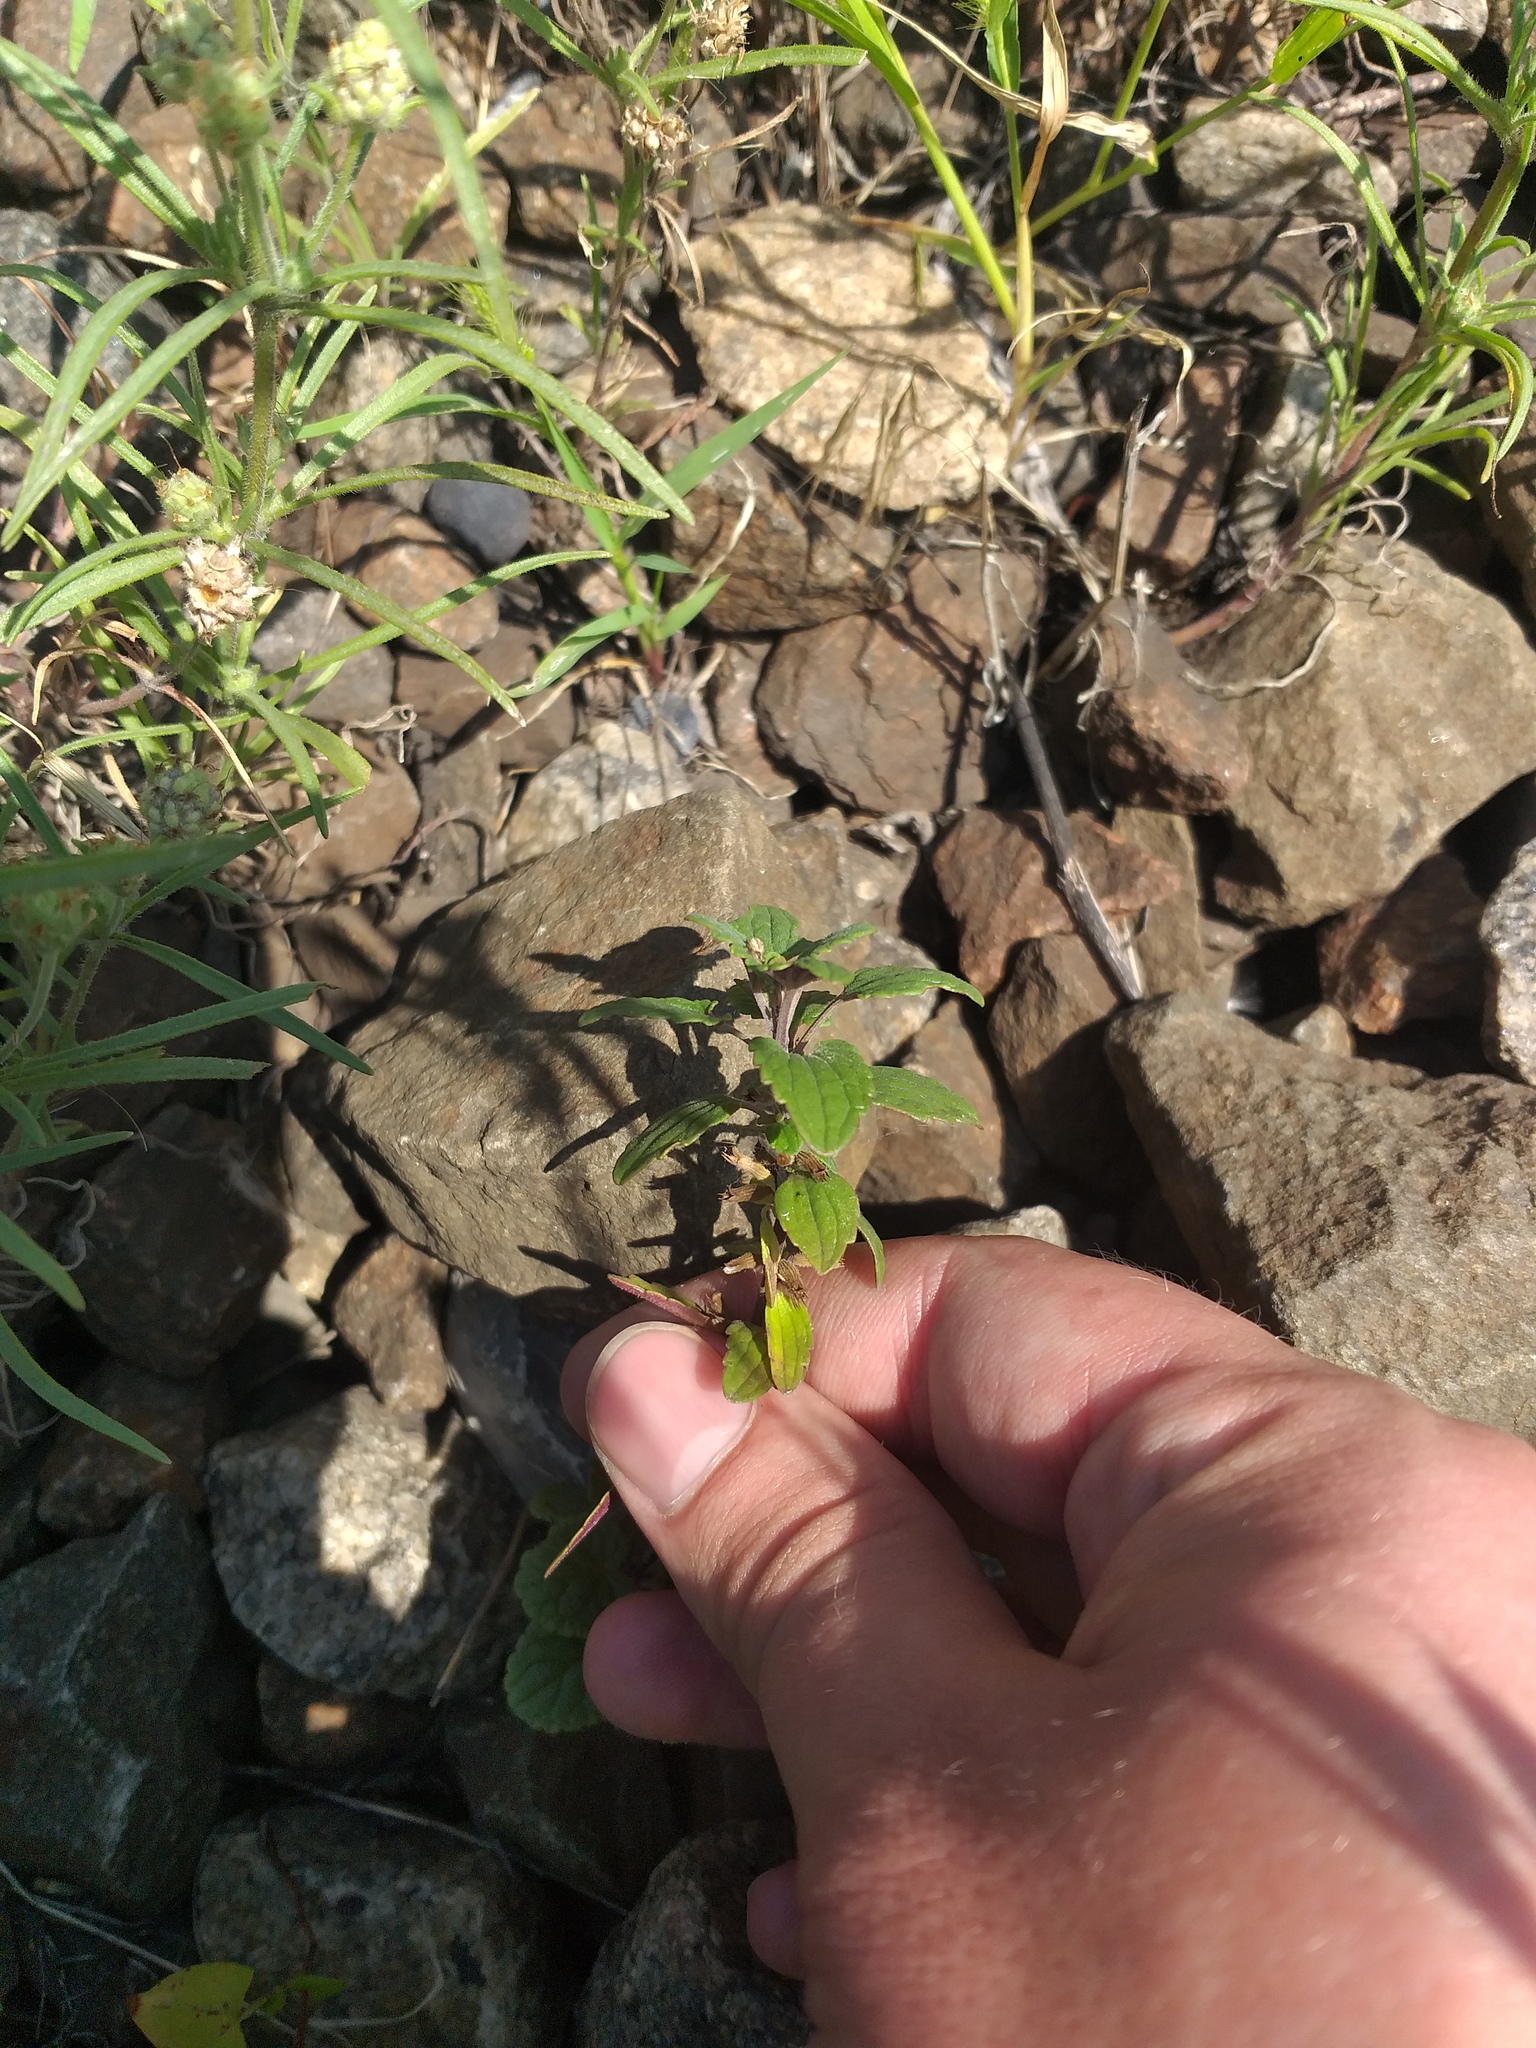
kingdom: Plantae
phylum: Tracheophyta
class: Magnoliopsida
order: Lamiales
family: Lamiaceae
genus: Dracocephalum
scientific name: Dracocephalum thymiflorum
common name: Thymeleaf dragonhead
